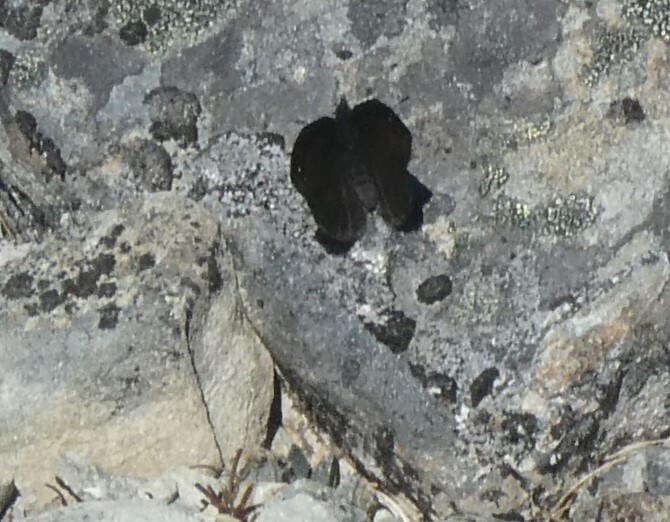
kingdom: Animalia
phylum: Arthropoda
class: Insecta
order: Lepidoptera
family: Nymphalidae
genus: Erebia
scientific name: Erebia Percnodaimon merula
